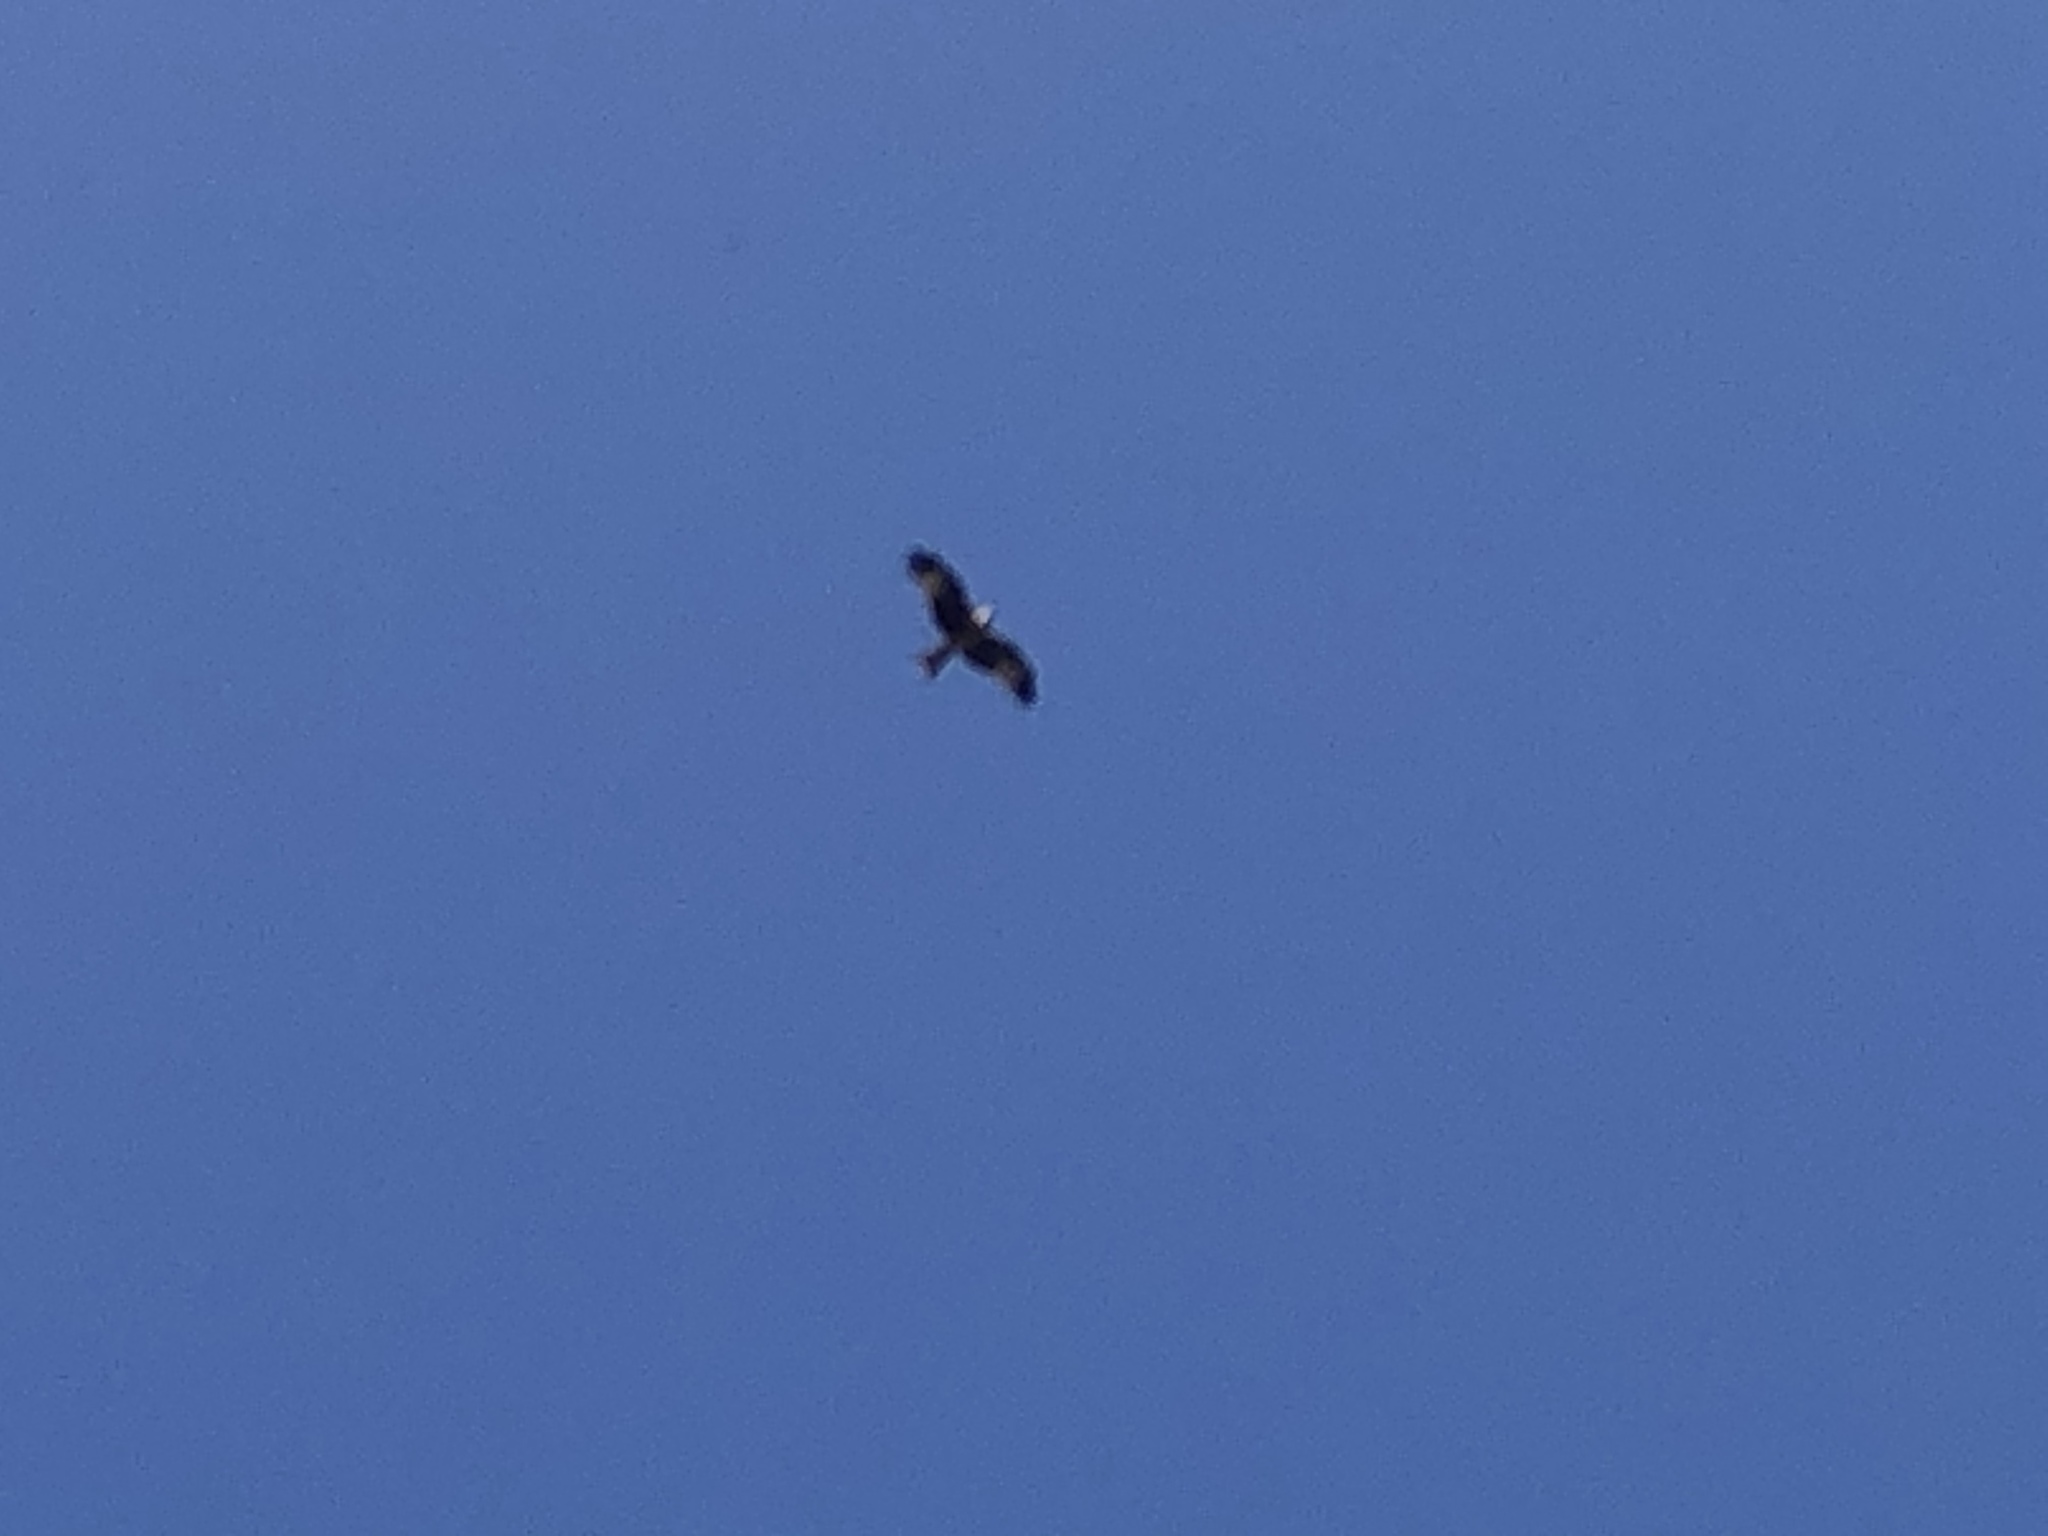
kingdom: Animalia
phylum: Chordata
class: Aves
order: Accipitriformes
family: Accipitridae
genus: Milvus
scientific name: Milvus milvus
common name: Red kite
